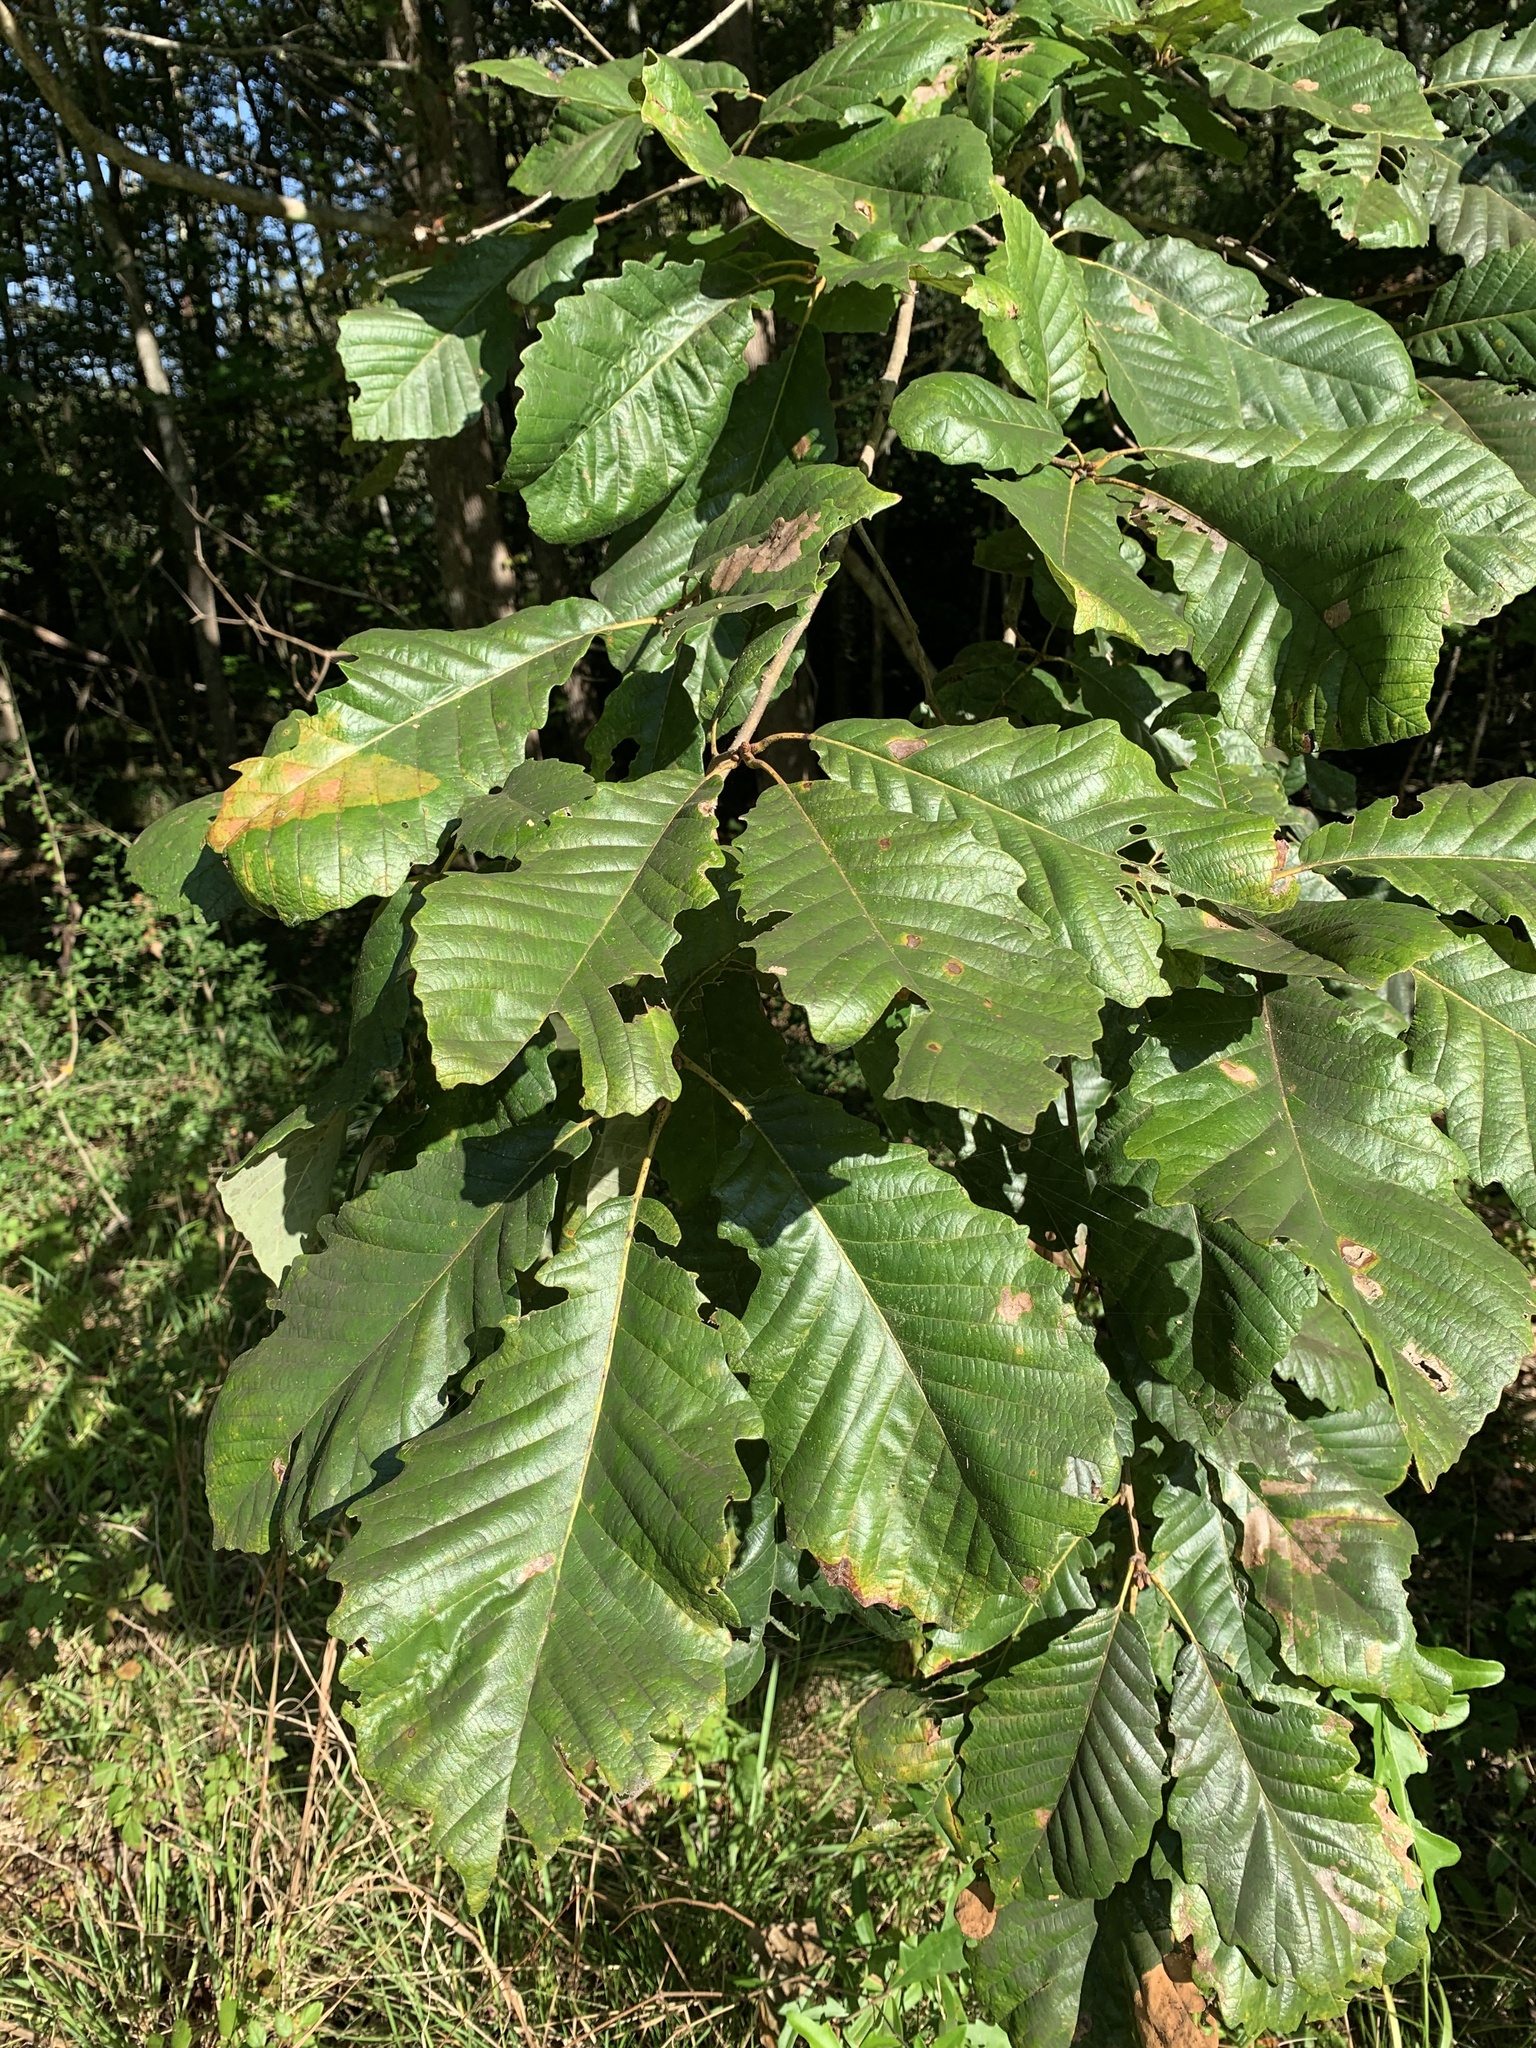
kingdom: Plantae
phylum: Tracheophyta
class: Magnoliopsida
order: Fagales
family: Fagaceae
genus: Quercus
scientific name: Quercus michauxii
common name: Swamp chestnut oak
